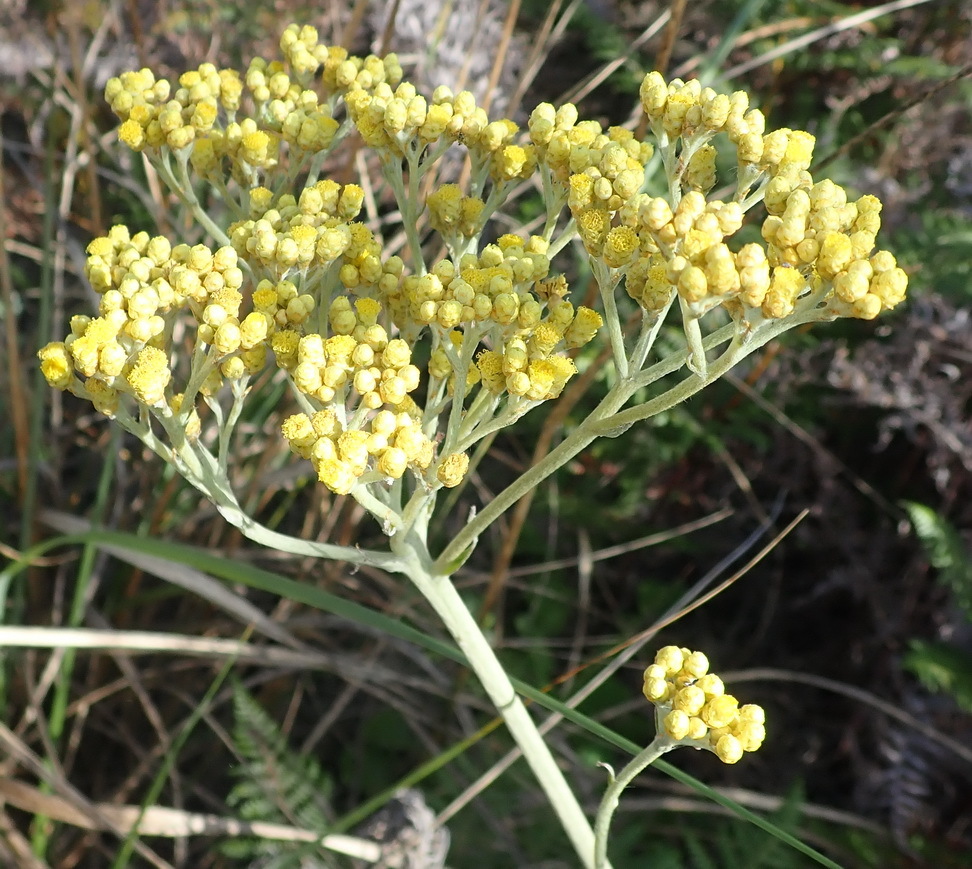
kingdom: Plantae
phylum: Tracheophyta
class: Magnoliopsida
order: Asterales
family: Asteraceae
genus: Helichrysum
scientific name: Helichrysum nudifolium
